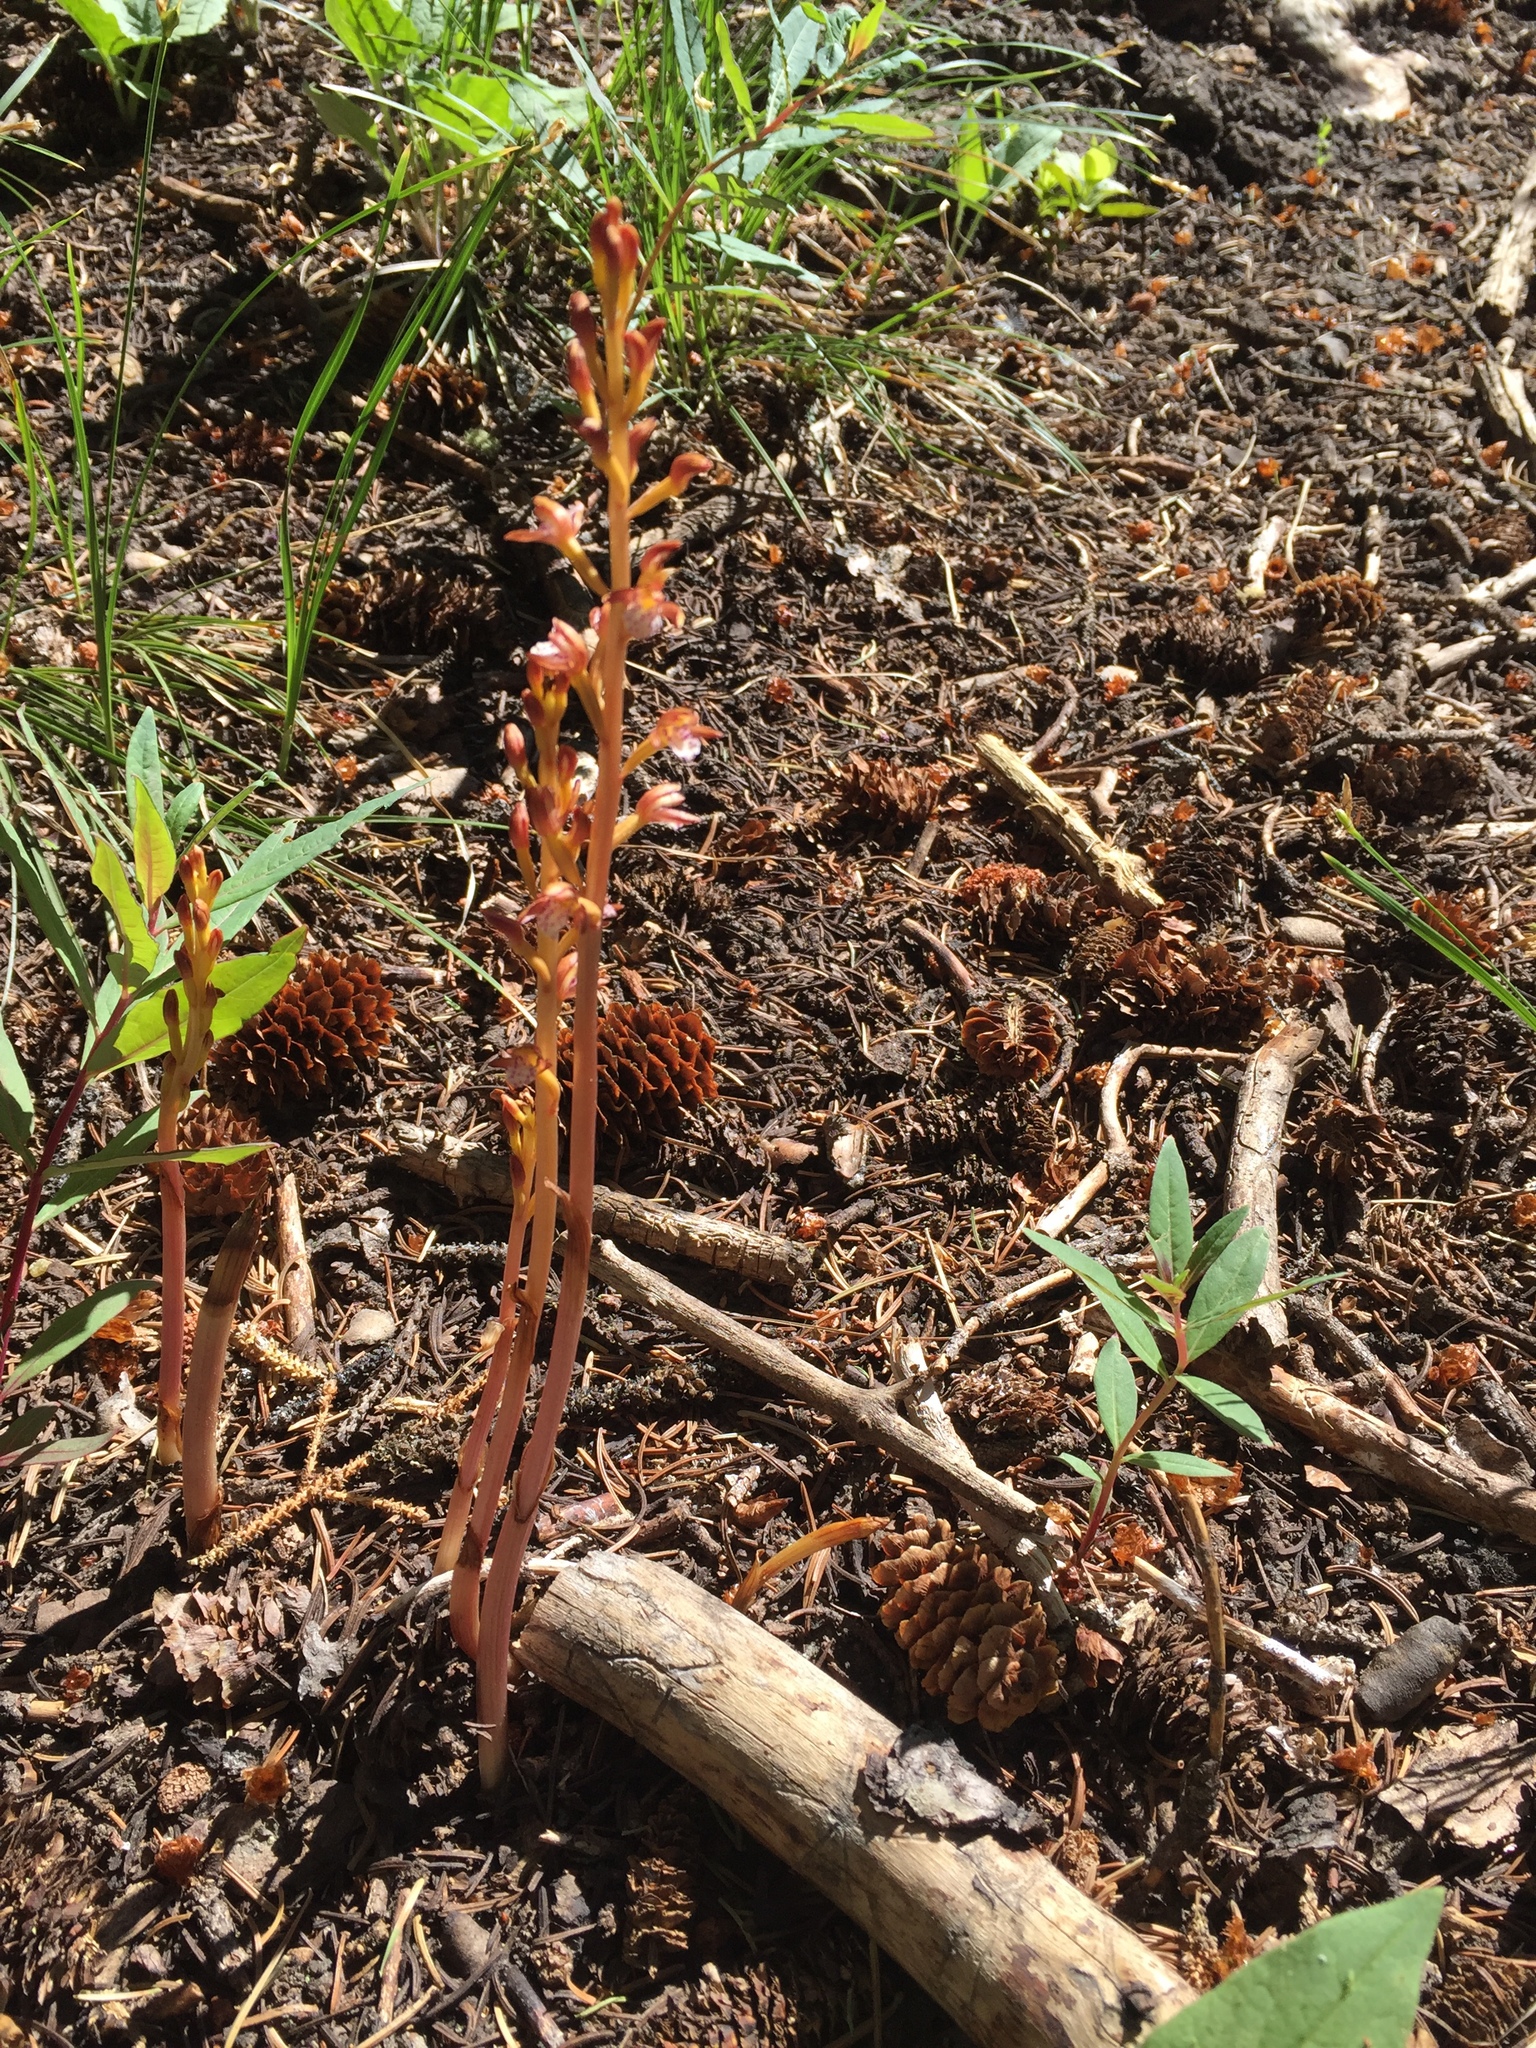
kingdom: Plantae
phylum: Tracheophyta
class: Liliopsida
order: Asparagales
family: Orchidaceae
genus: Corallorhiza
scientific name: Corallorhiza maculata
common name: Spotted coralroot
